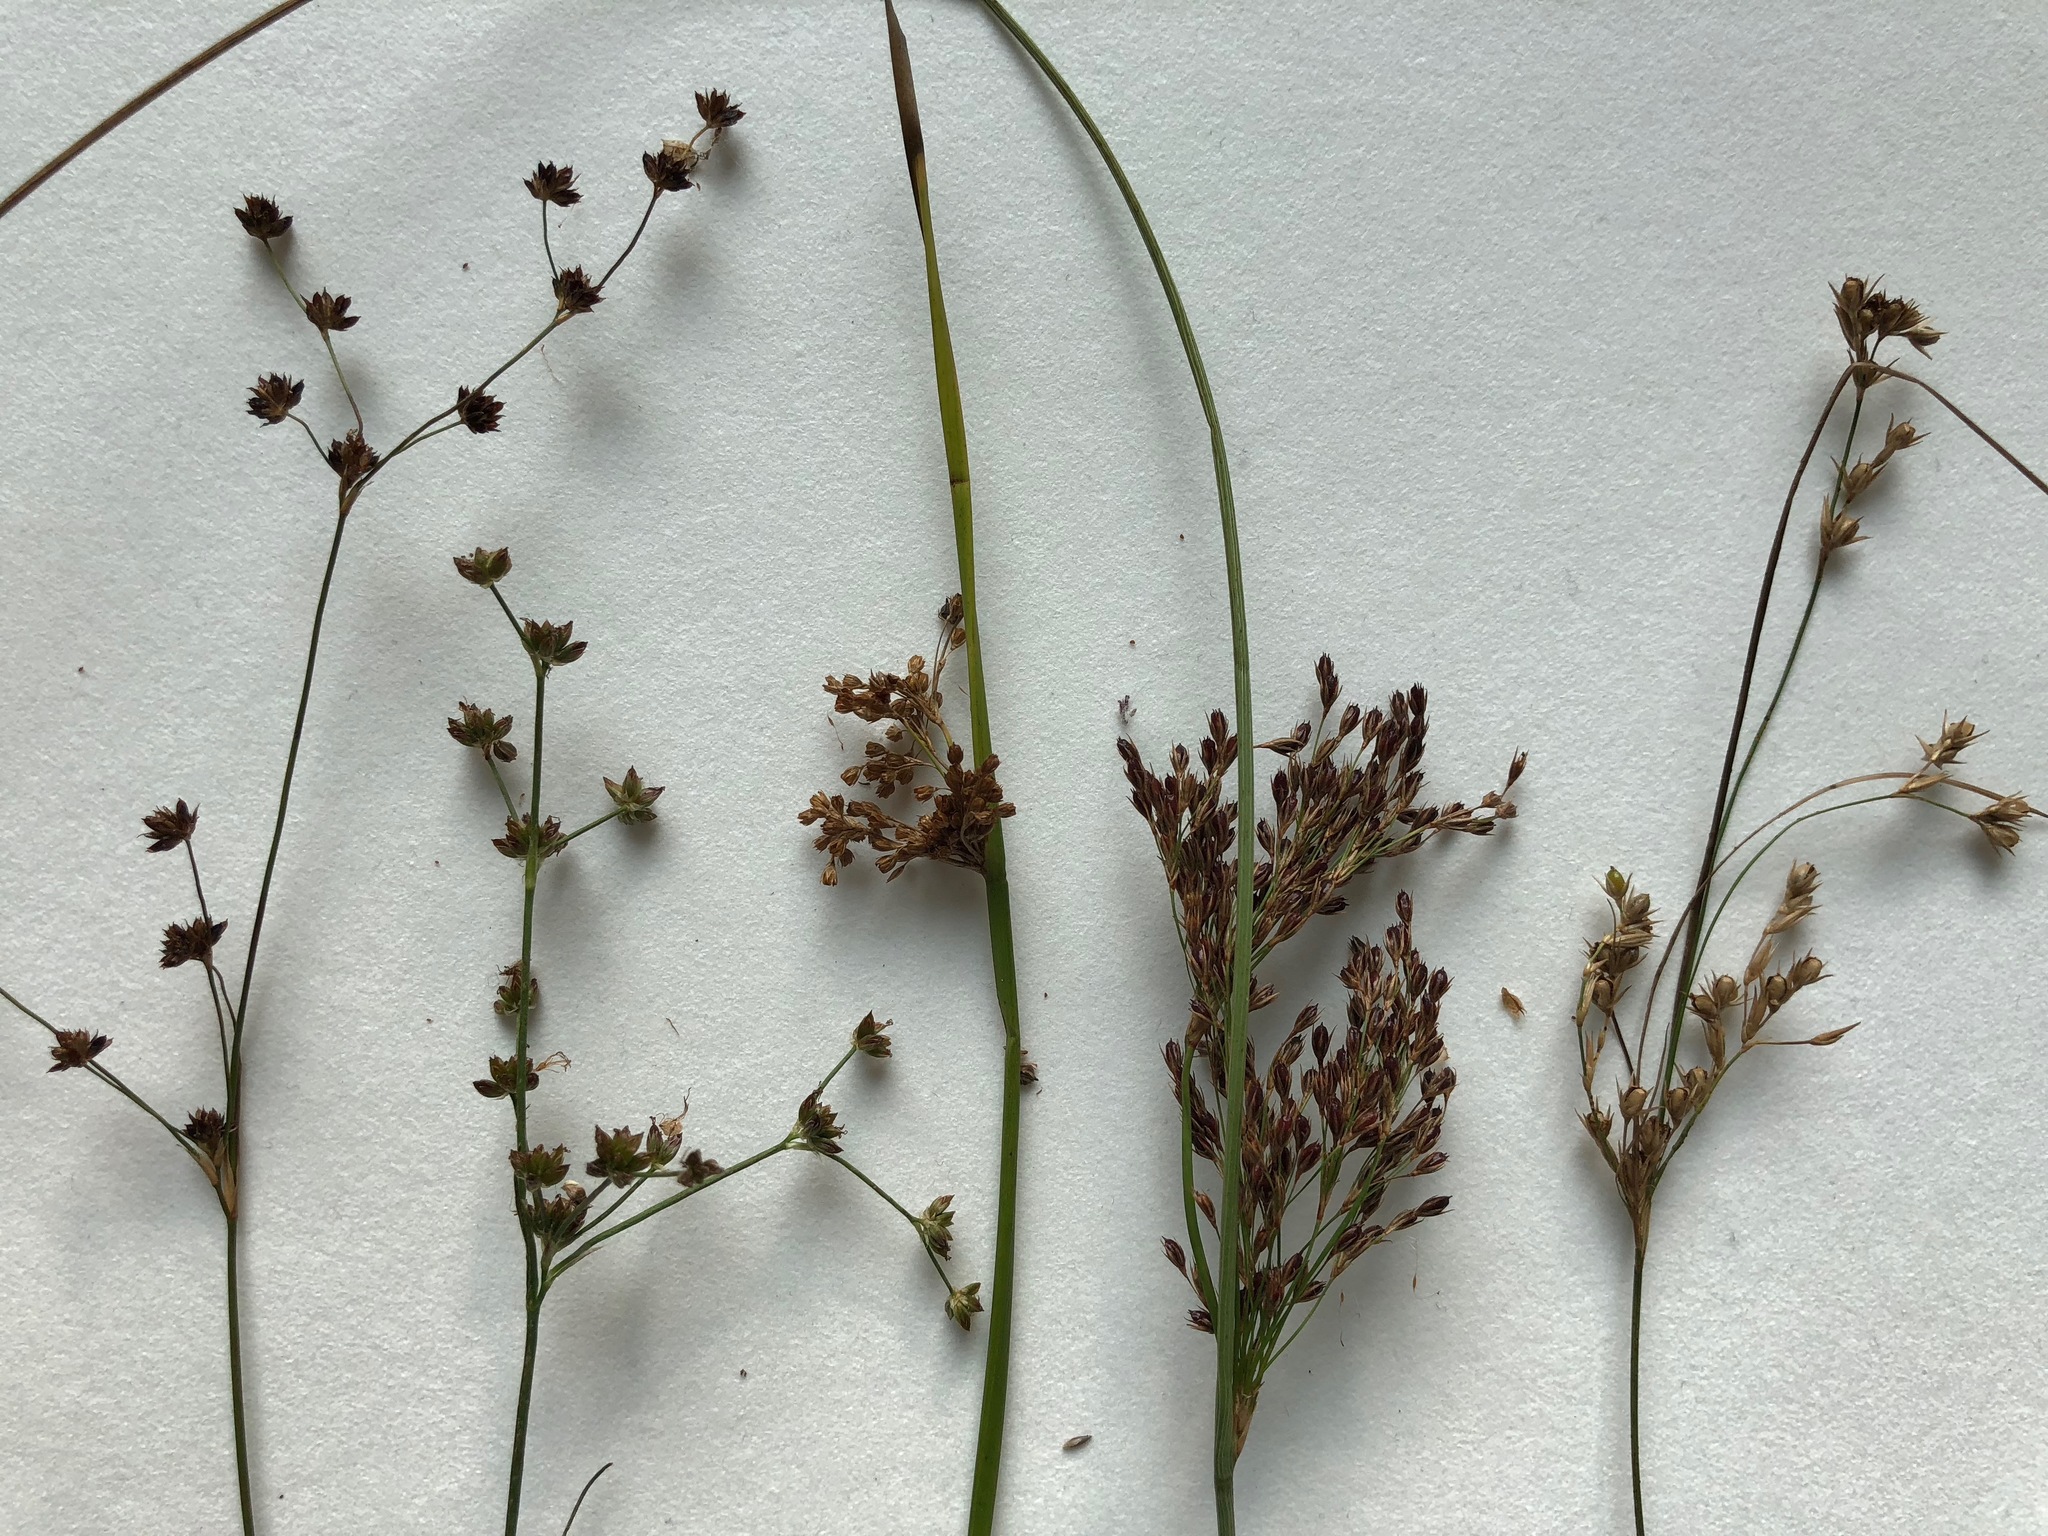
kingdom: Plantae
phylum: Tracheophyta
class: Liliopsida
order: Poales
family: Juncaceae
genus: Juncus
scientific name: Juncus articulatus
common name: Jointed rush
